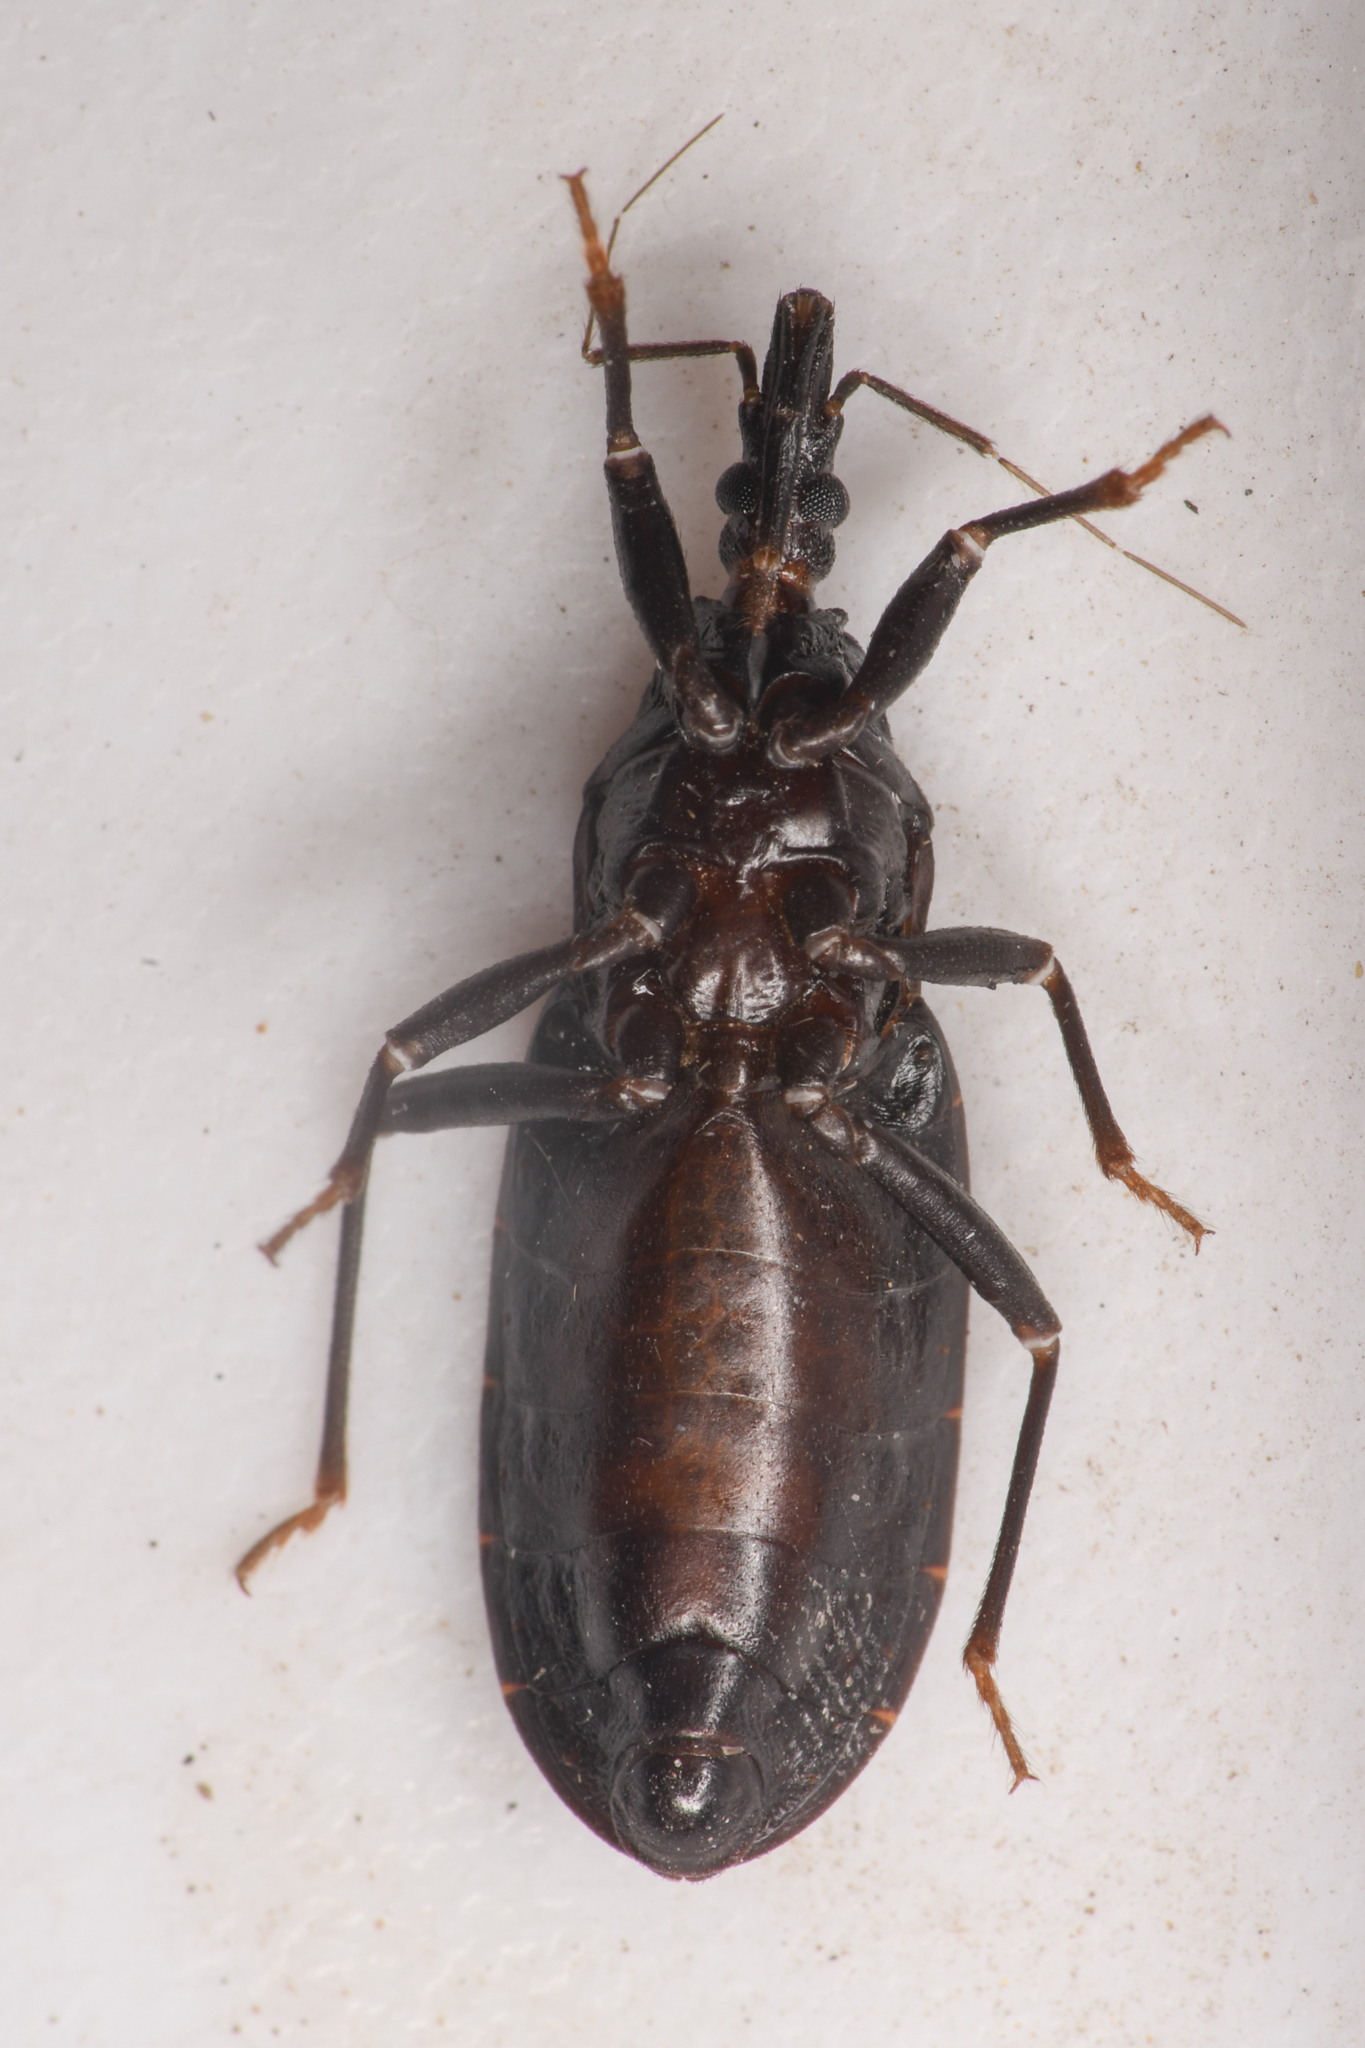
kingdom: Animalia
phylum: Arthropoda
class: Insecta
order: Hemiptera
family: Reduviidae
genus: Triatoma
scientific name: Triatoma protracta
